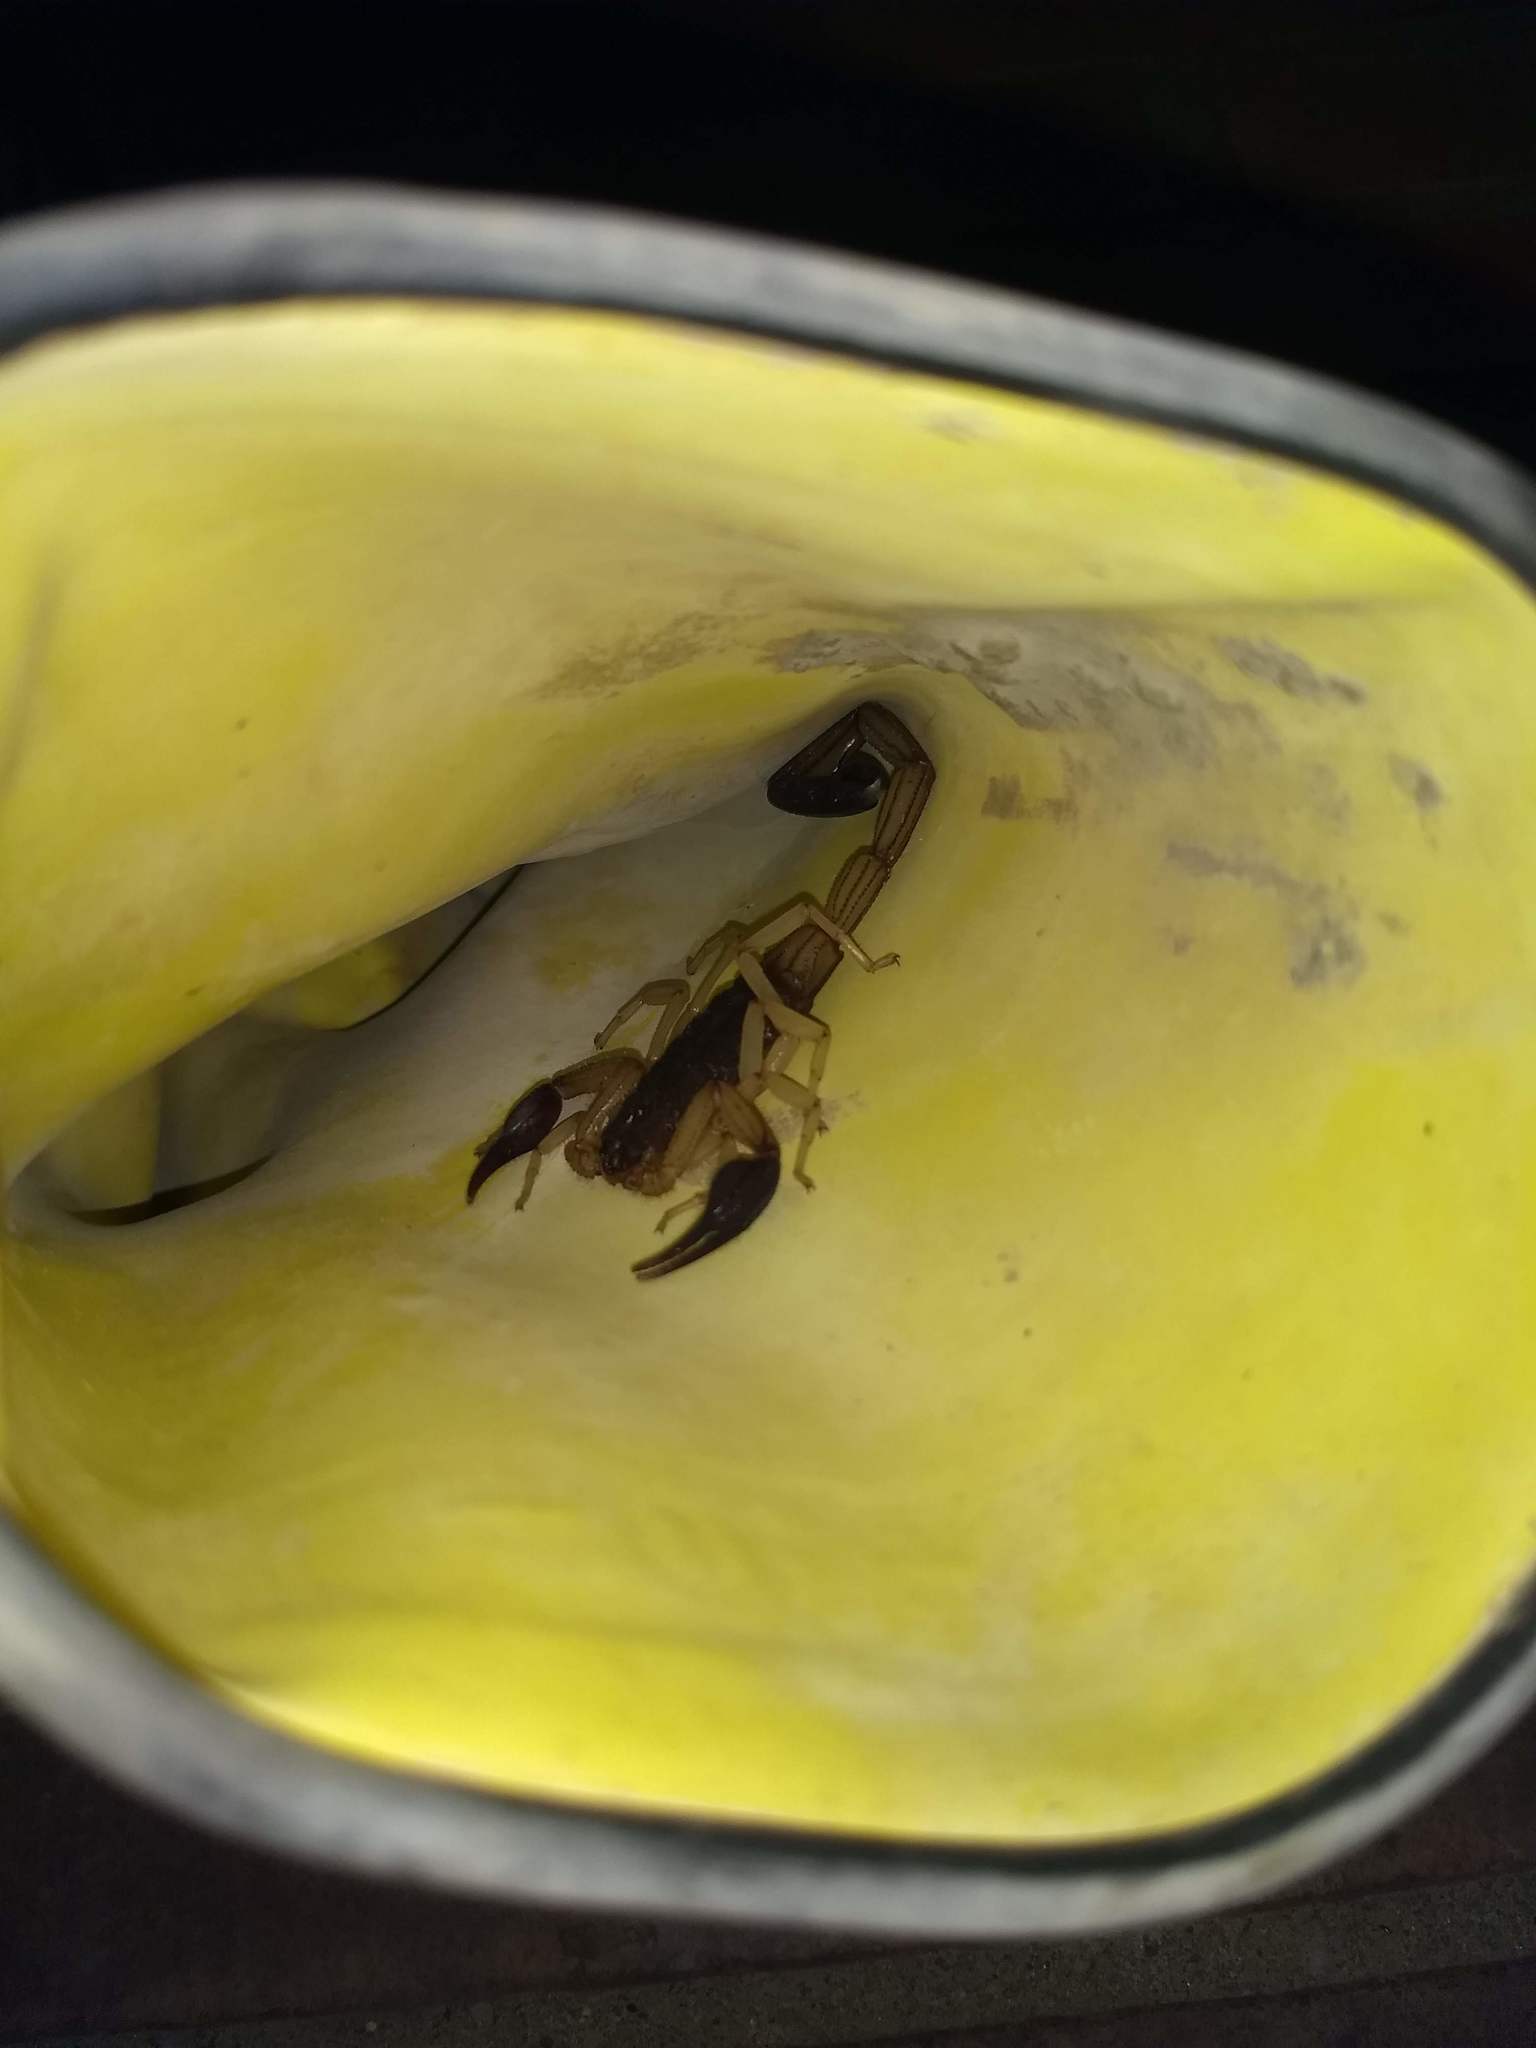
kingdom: Animalia
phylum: Arthropoda
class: Arachnida
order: Scorpiones
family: Buthidae
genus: Centruroides
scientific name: Centruroides margaritatus
